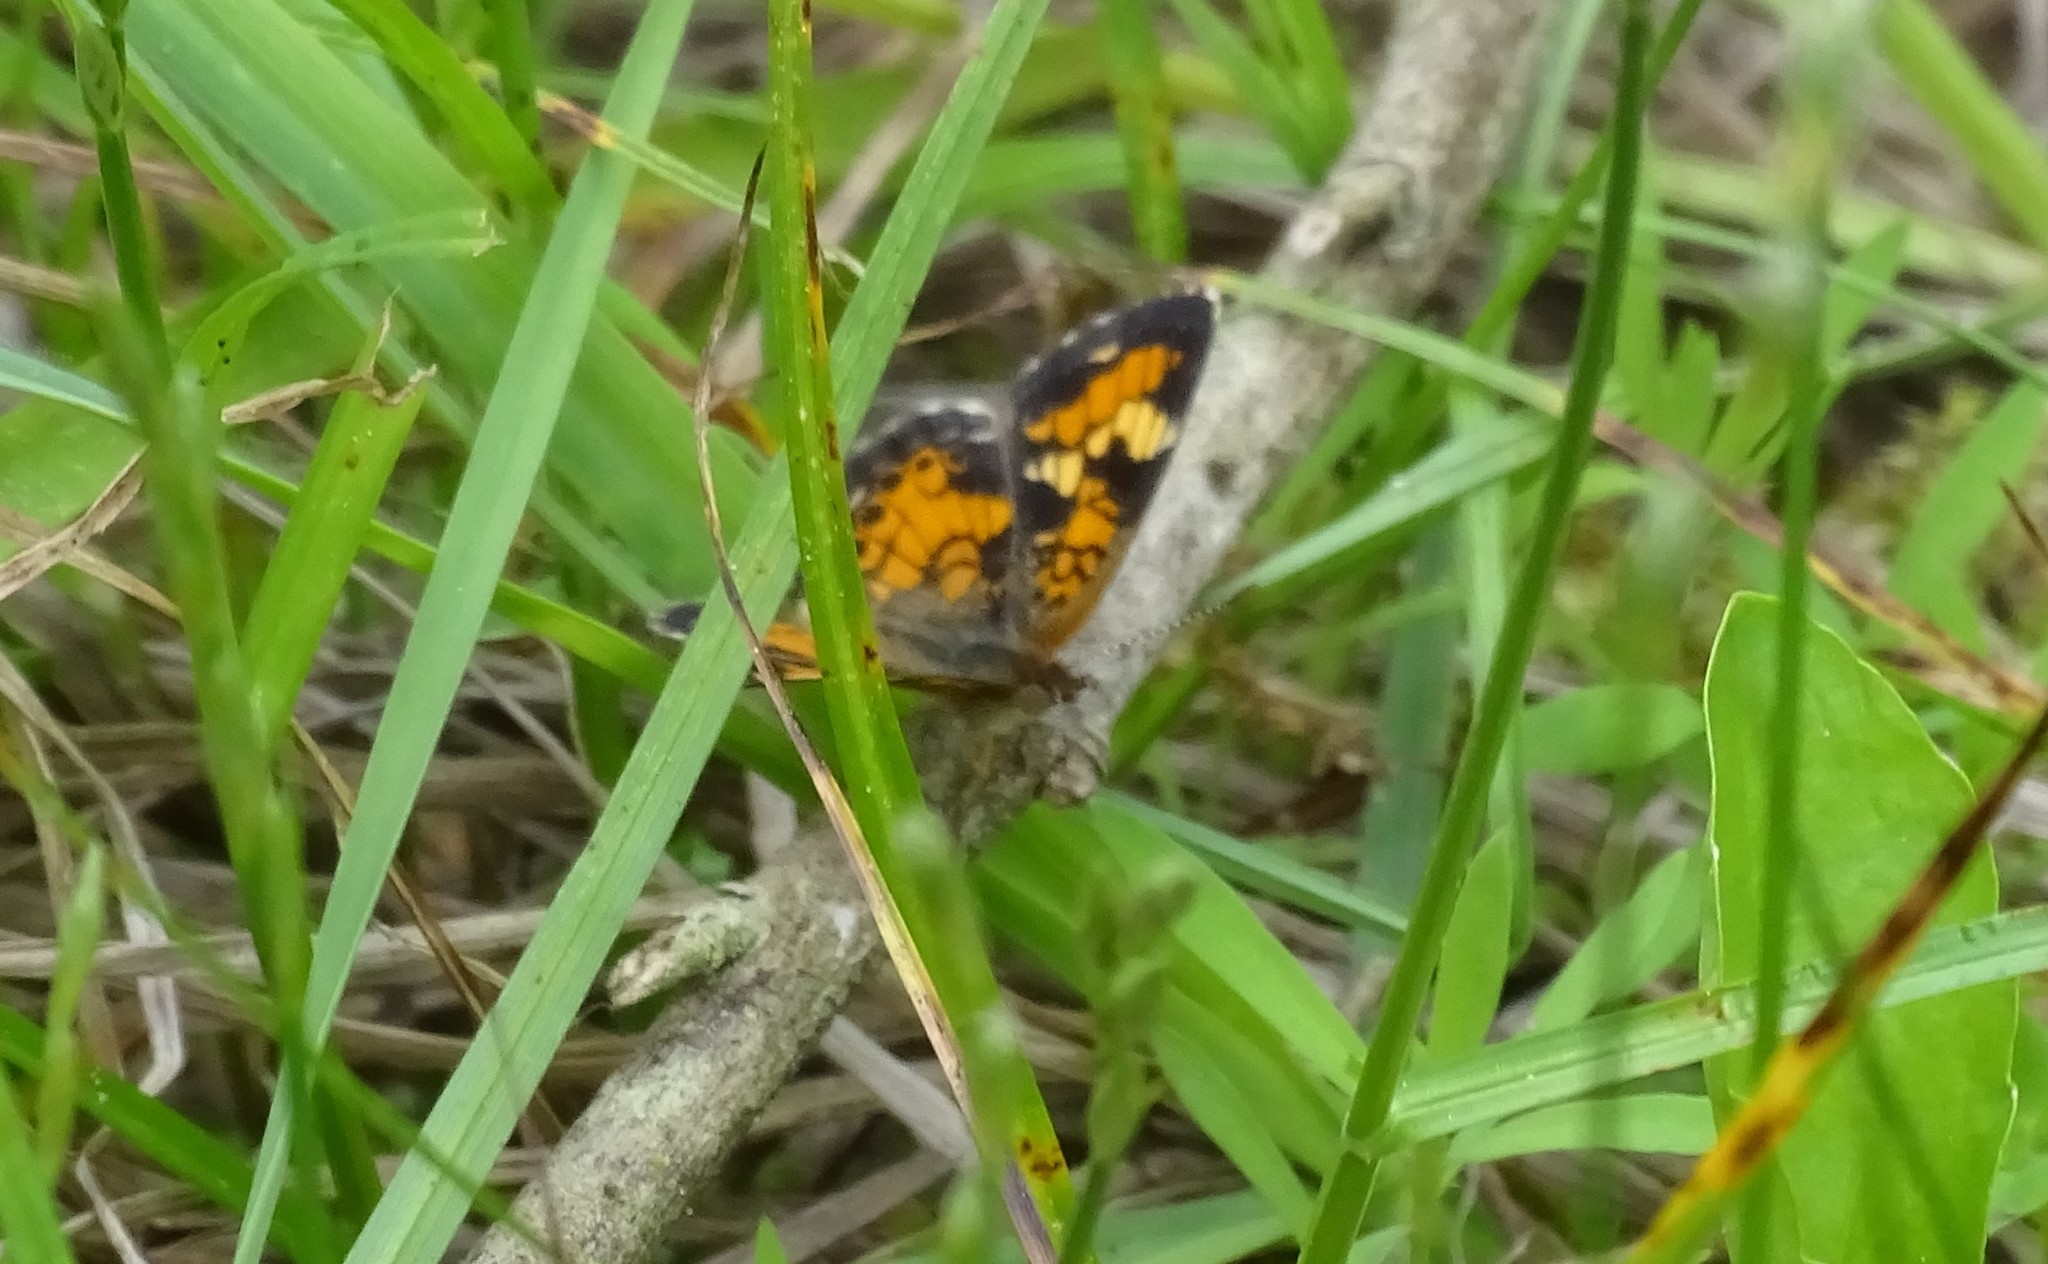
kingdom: Animalia
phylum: Arthropoda
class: Insecta
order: Lepidoptera
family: Nymphalidae
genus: Phyciodes
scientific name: Phyciodes phaon
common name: Phaon crescent
